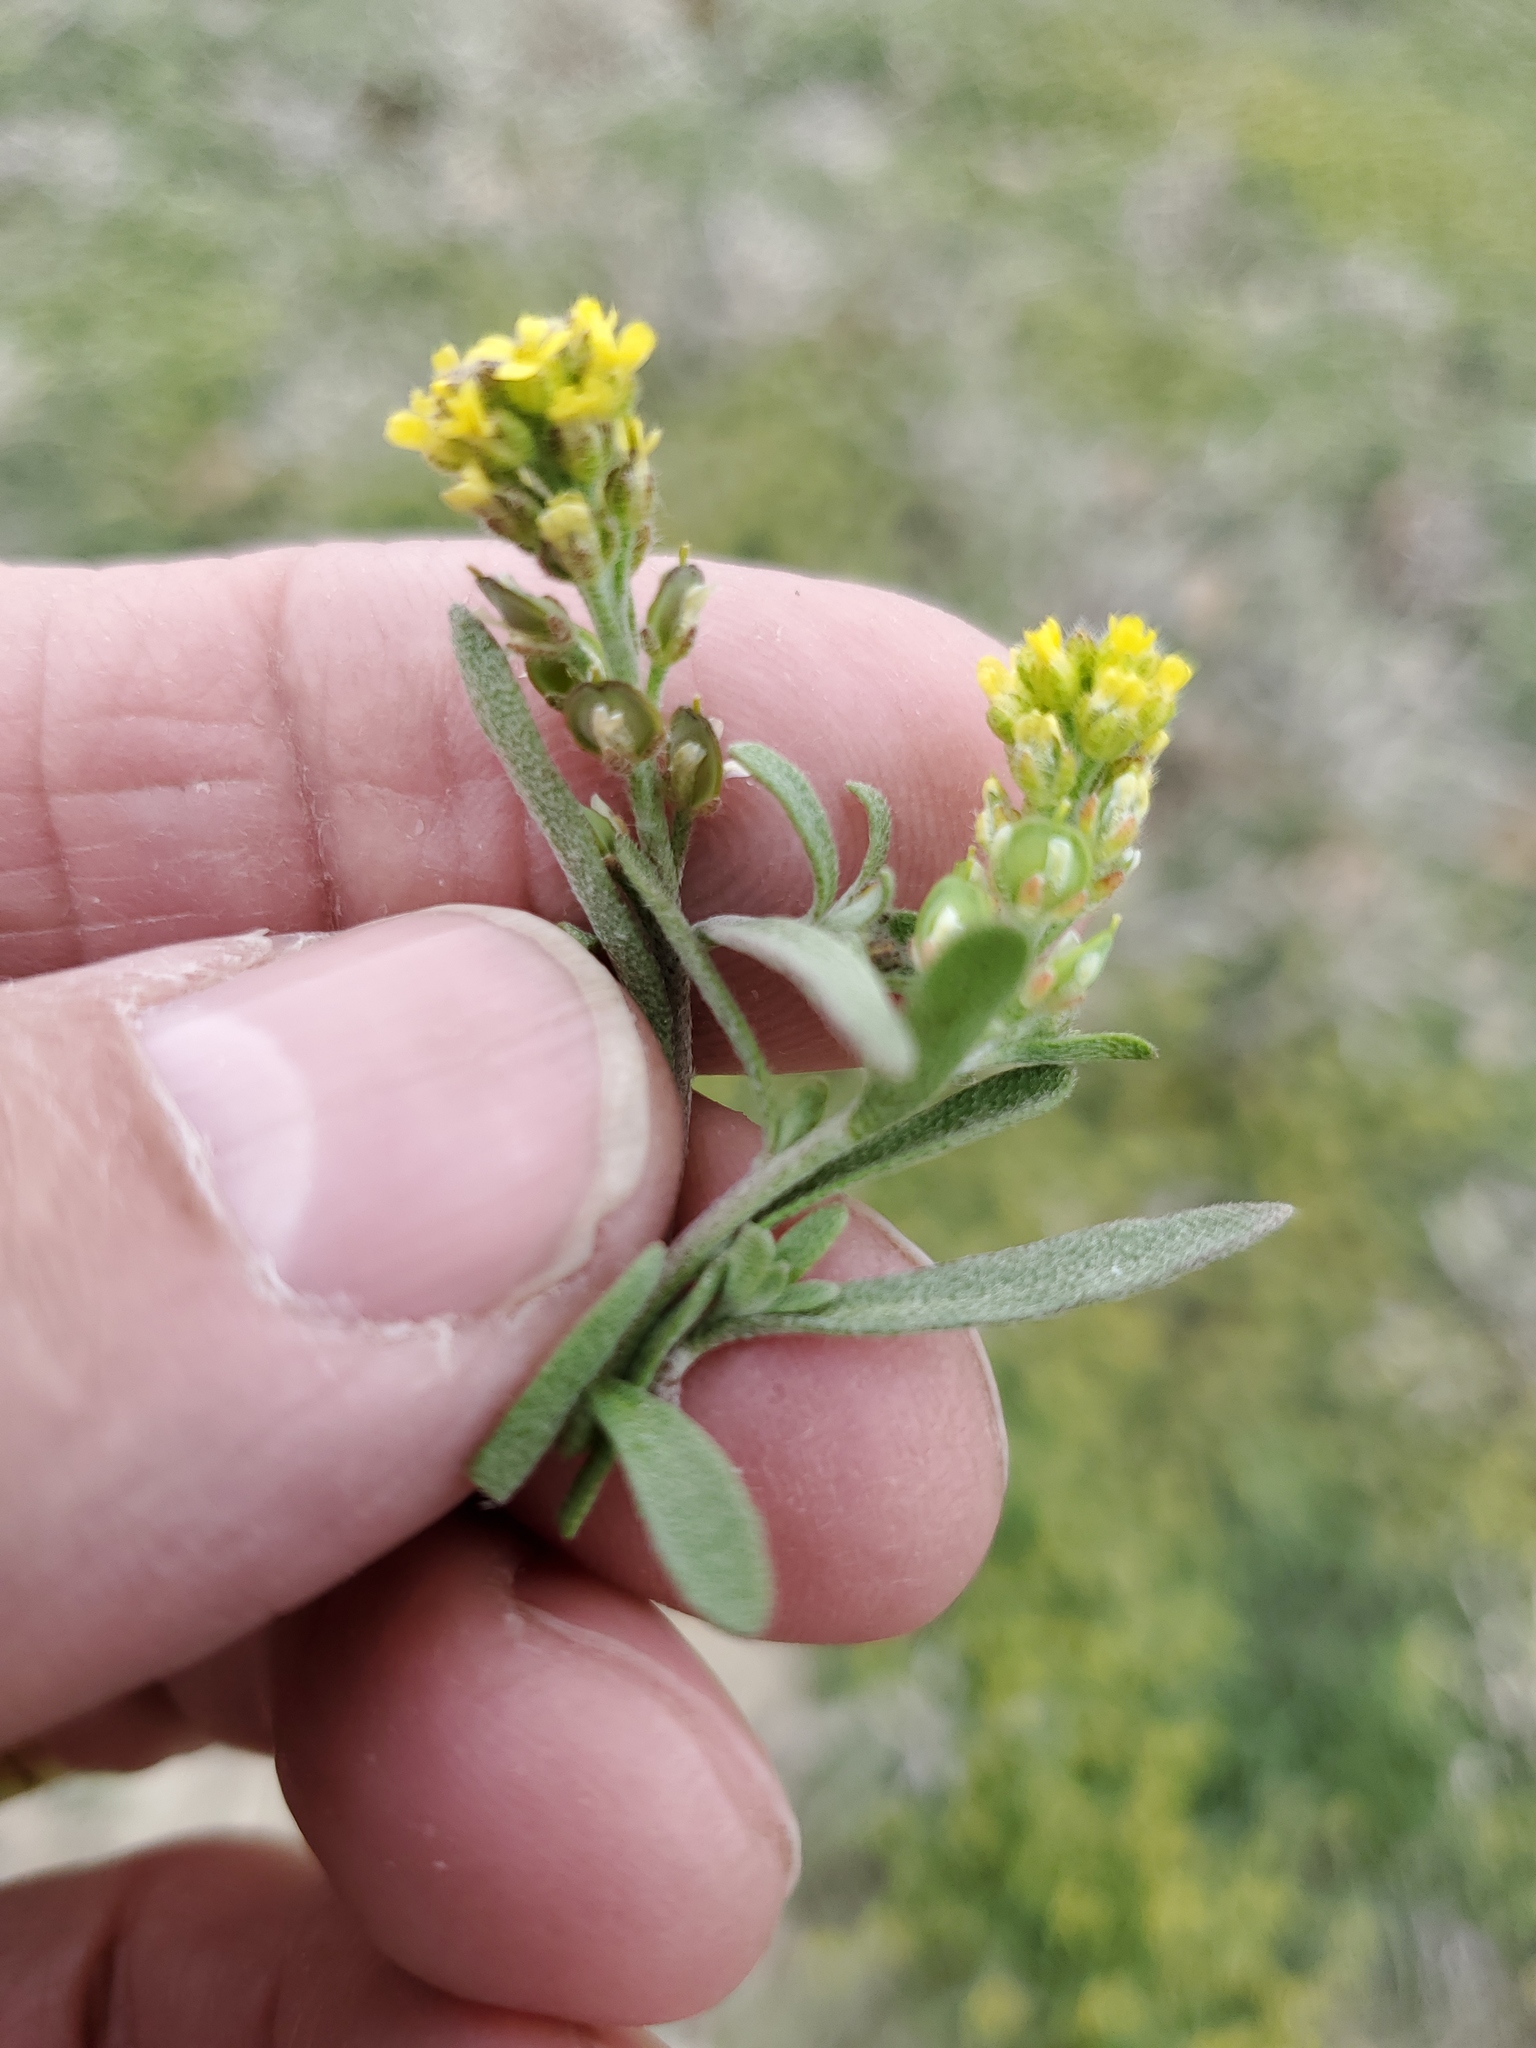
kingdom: Plantae
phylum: Tracheophyta
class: Magnoliopsida
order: Brassicales
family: Brassicaceae
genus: Alyssum
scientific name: Alyssum turkestanicum
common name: Desert alyssum
